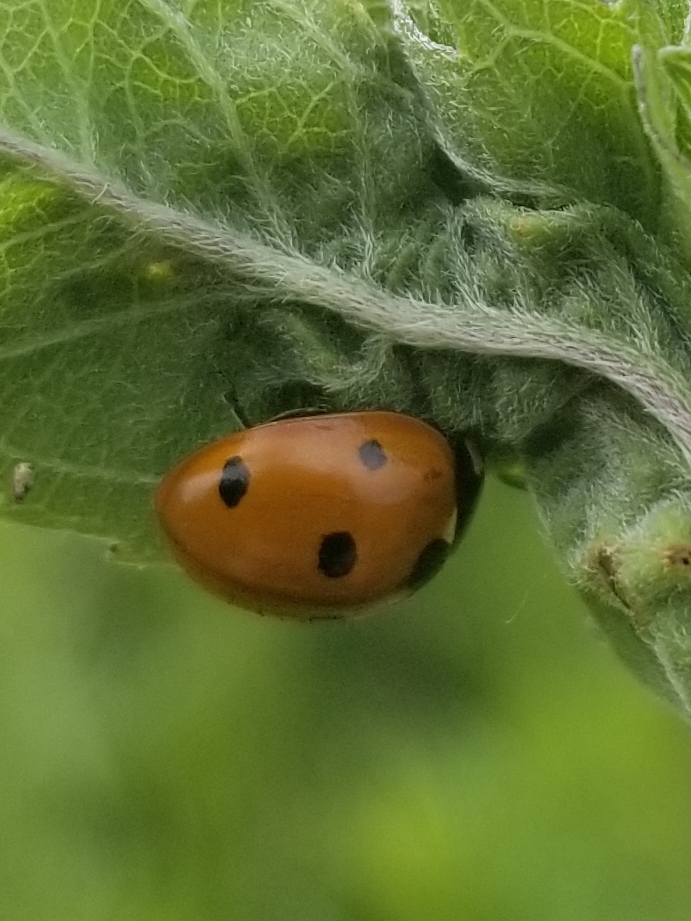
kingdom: Animalia
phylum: Arthropoda
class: Insecta
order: Coleoptera
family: Coccinellidae
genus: Coccinella
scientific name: Coccinella septempunctata
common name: Sevenspotted lady beetle
